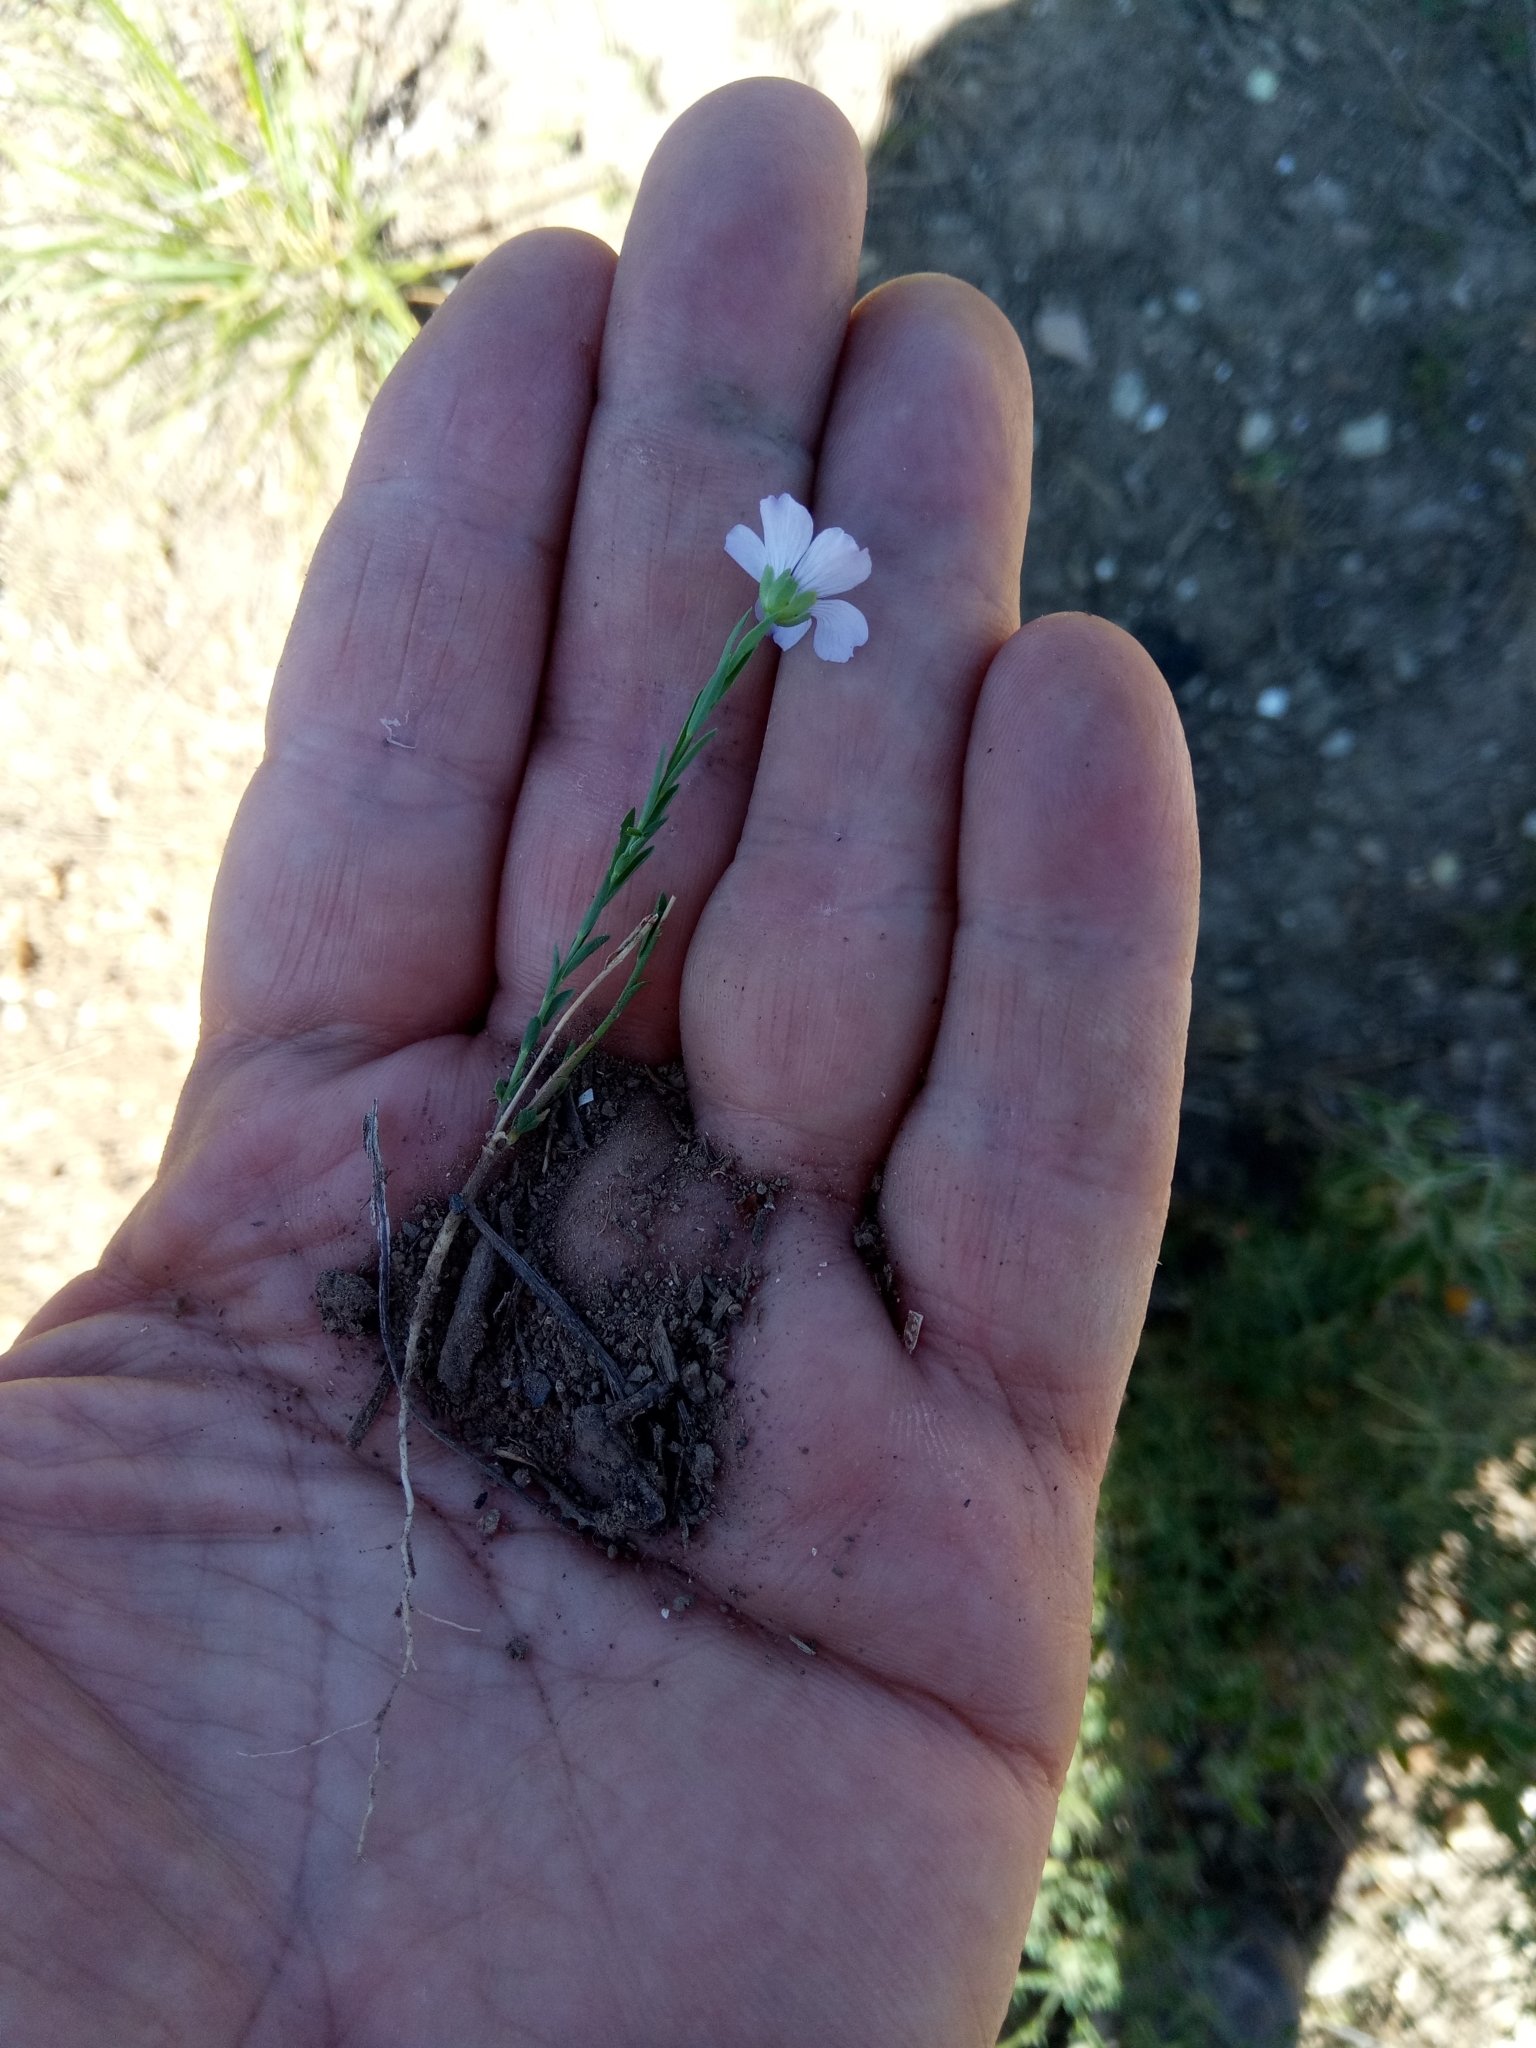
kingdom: Plantae
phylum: Tracheophyta
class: Magnoliopsida
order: Malpighiales
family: Linaceae
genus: Linum
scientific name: Linum bienne
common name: Pale flax
